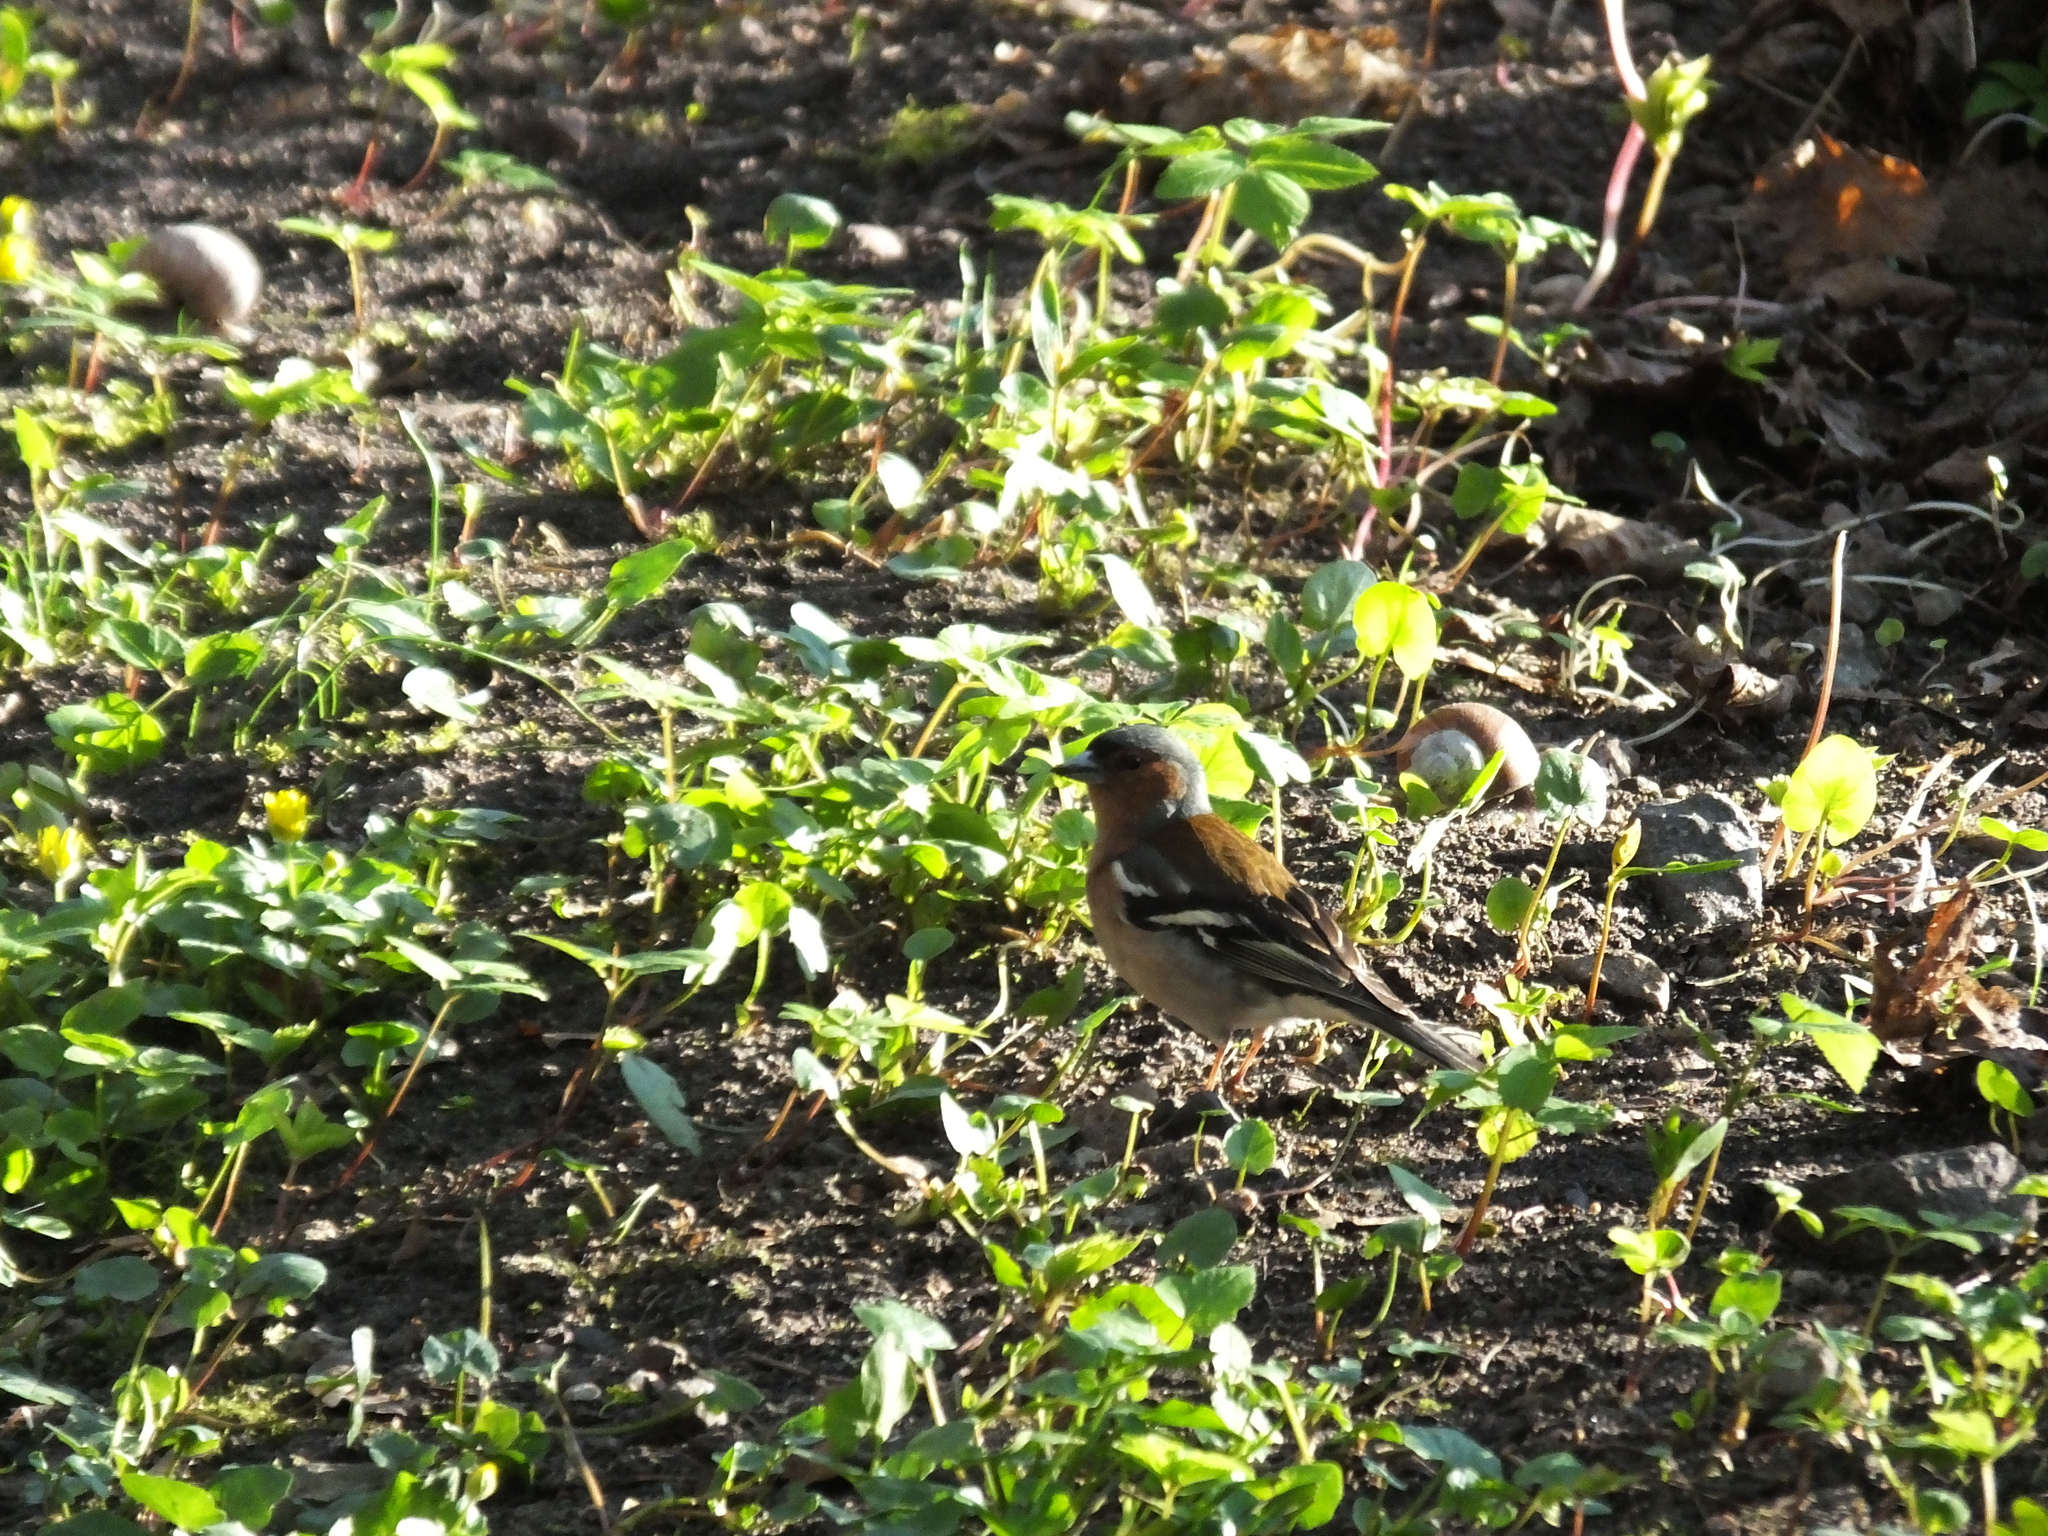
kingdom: Animalia
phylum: Chordata
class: Aves
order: Passeriformes
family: Fringillidae
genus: Fringilla
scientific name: Fringilla coelebs
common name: Common chaffinch
